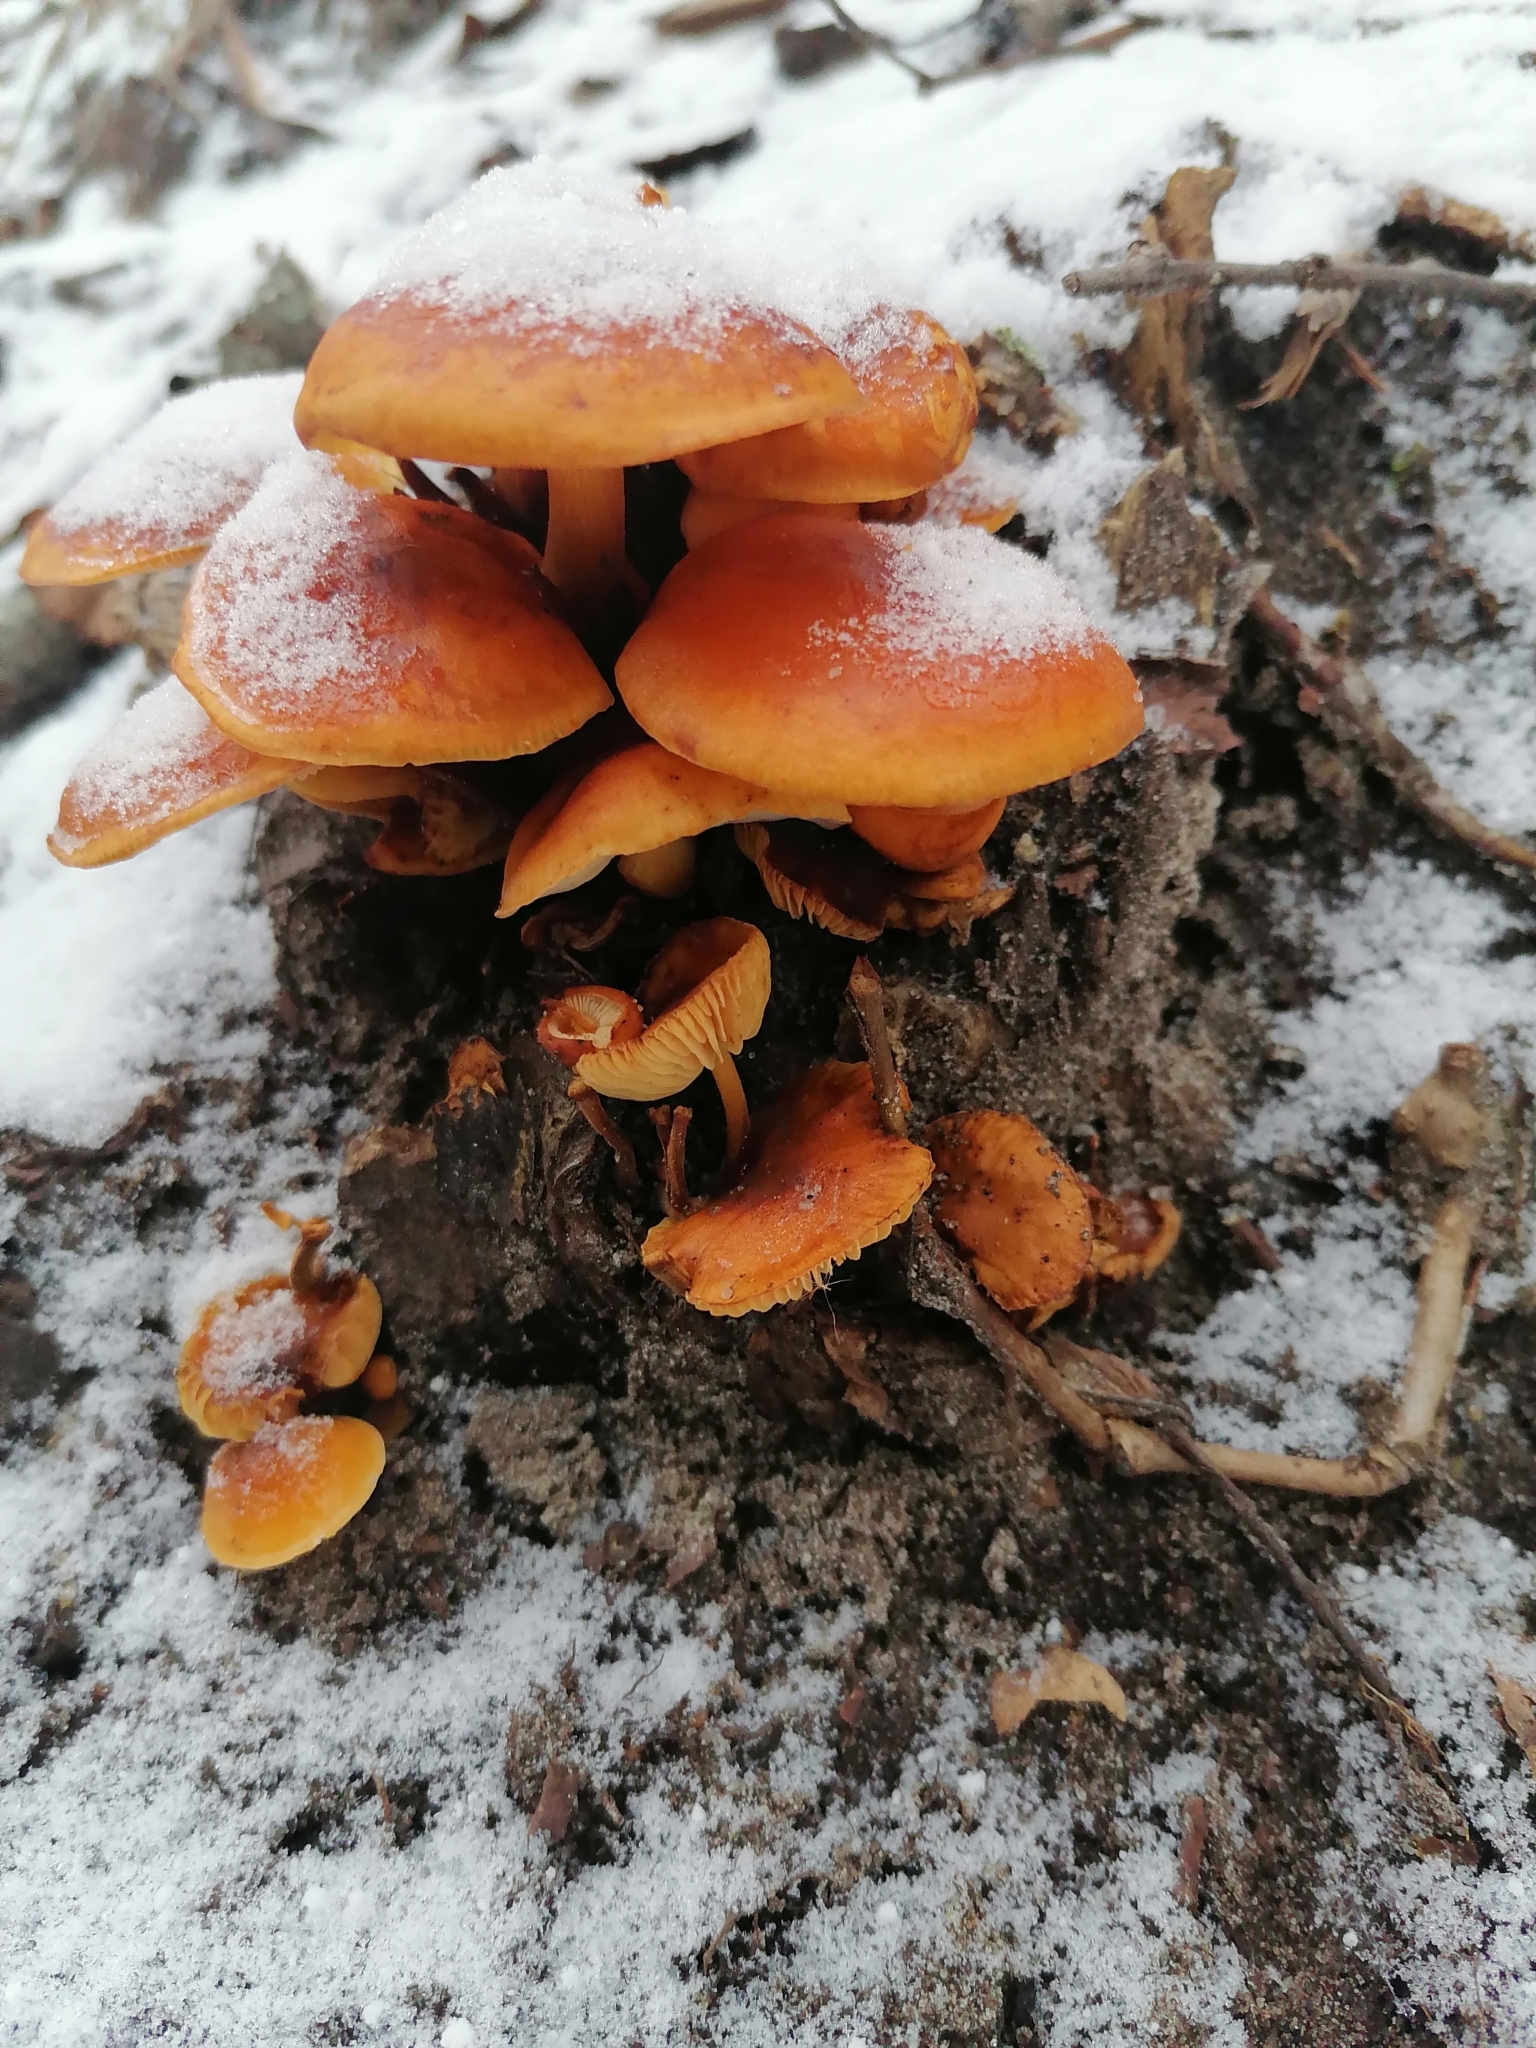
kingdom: Fungi
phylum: Basidiomycota
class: Agaricomycetes
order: Agaricales
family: Physalacriaceae
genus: Flammulina
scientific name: Flammulina
